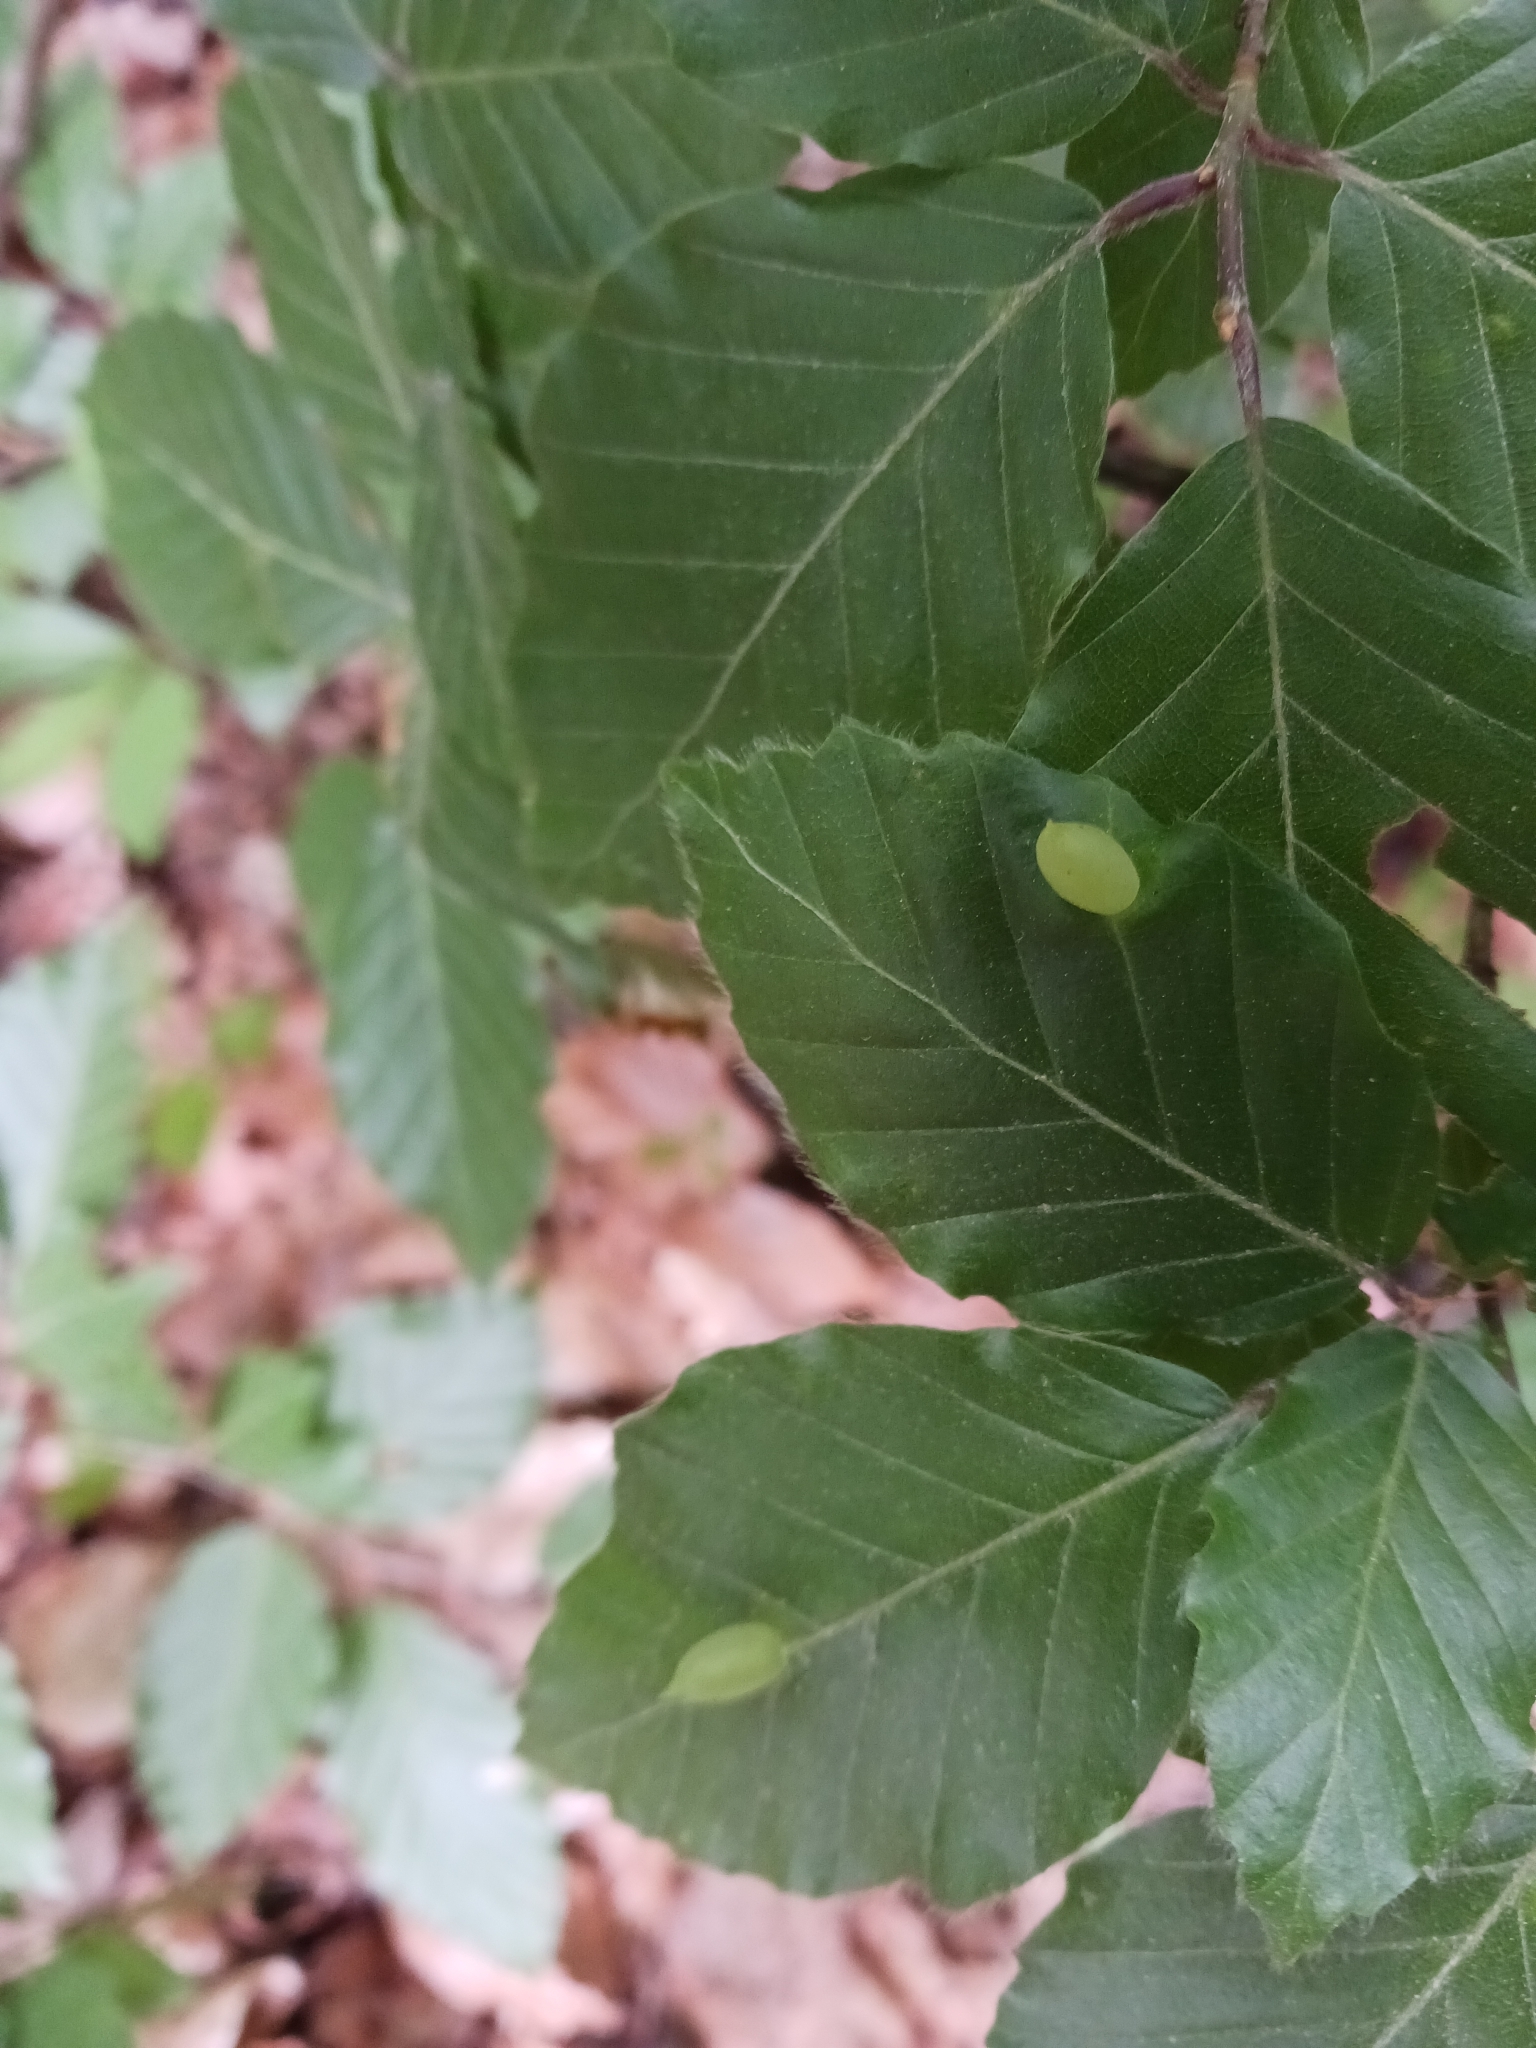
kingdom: Animalia
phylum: Arthropoda
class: Insecta
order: Diptera
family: Cecidomyiidae
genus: Mikiola
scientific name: Mikiola fagi
